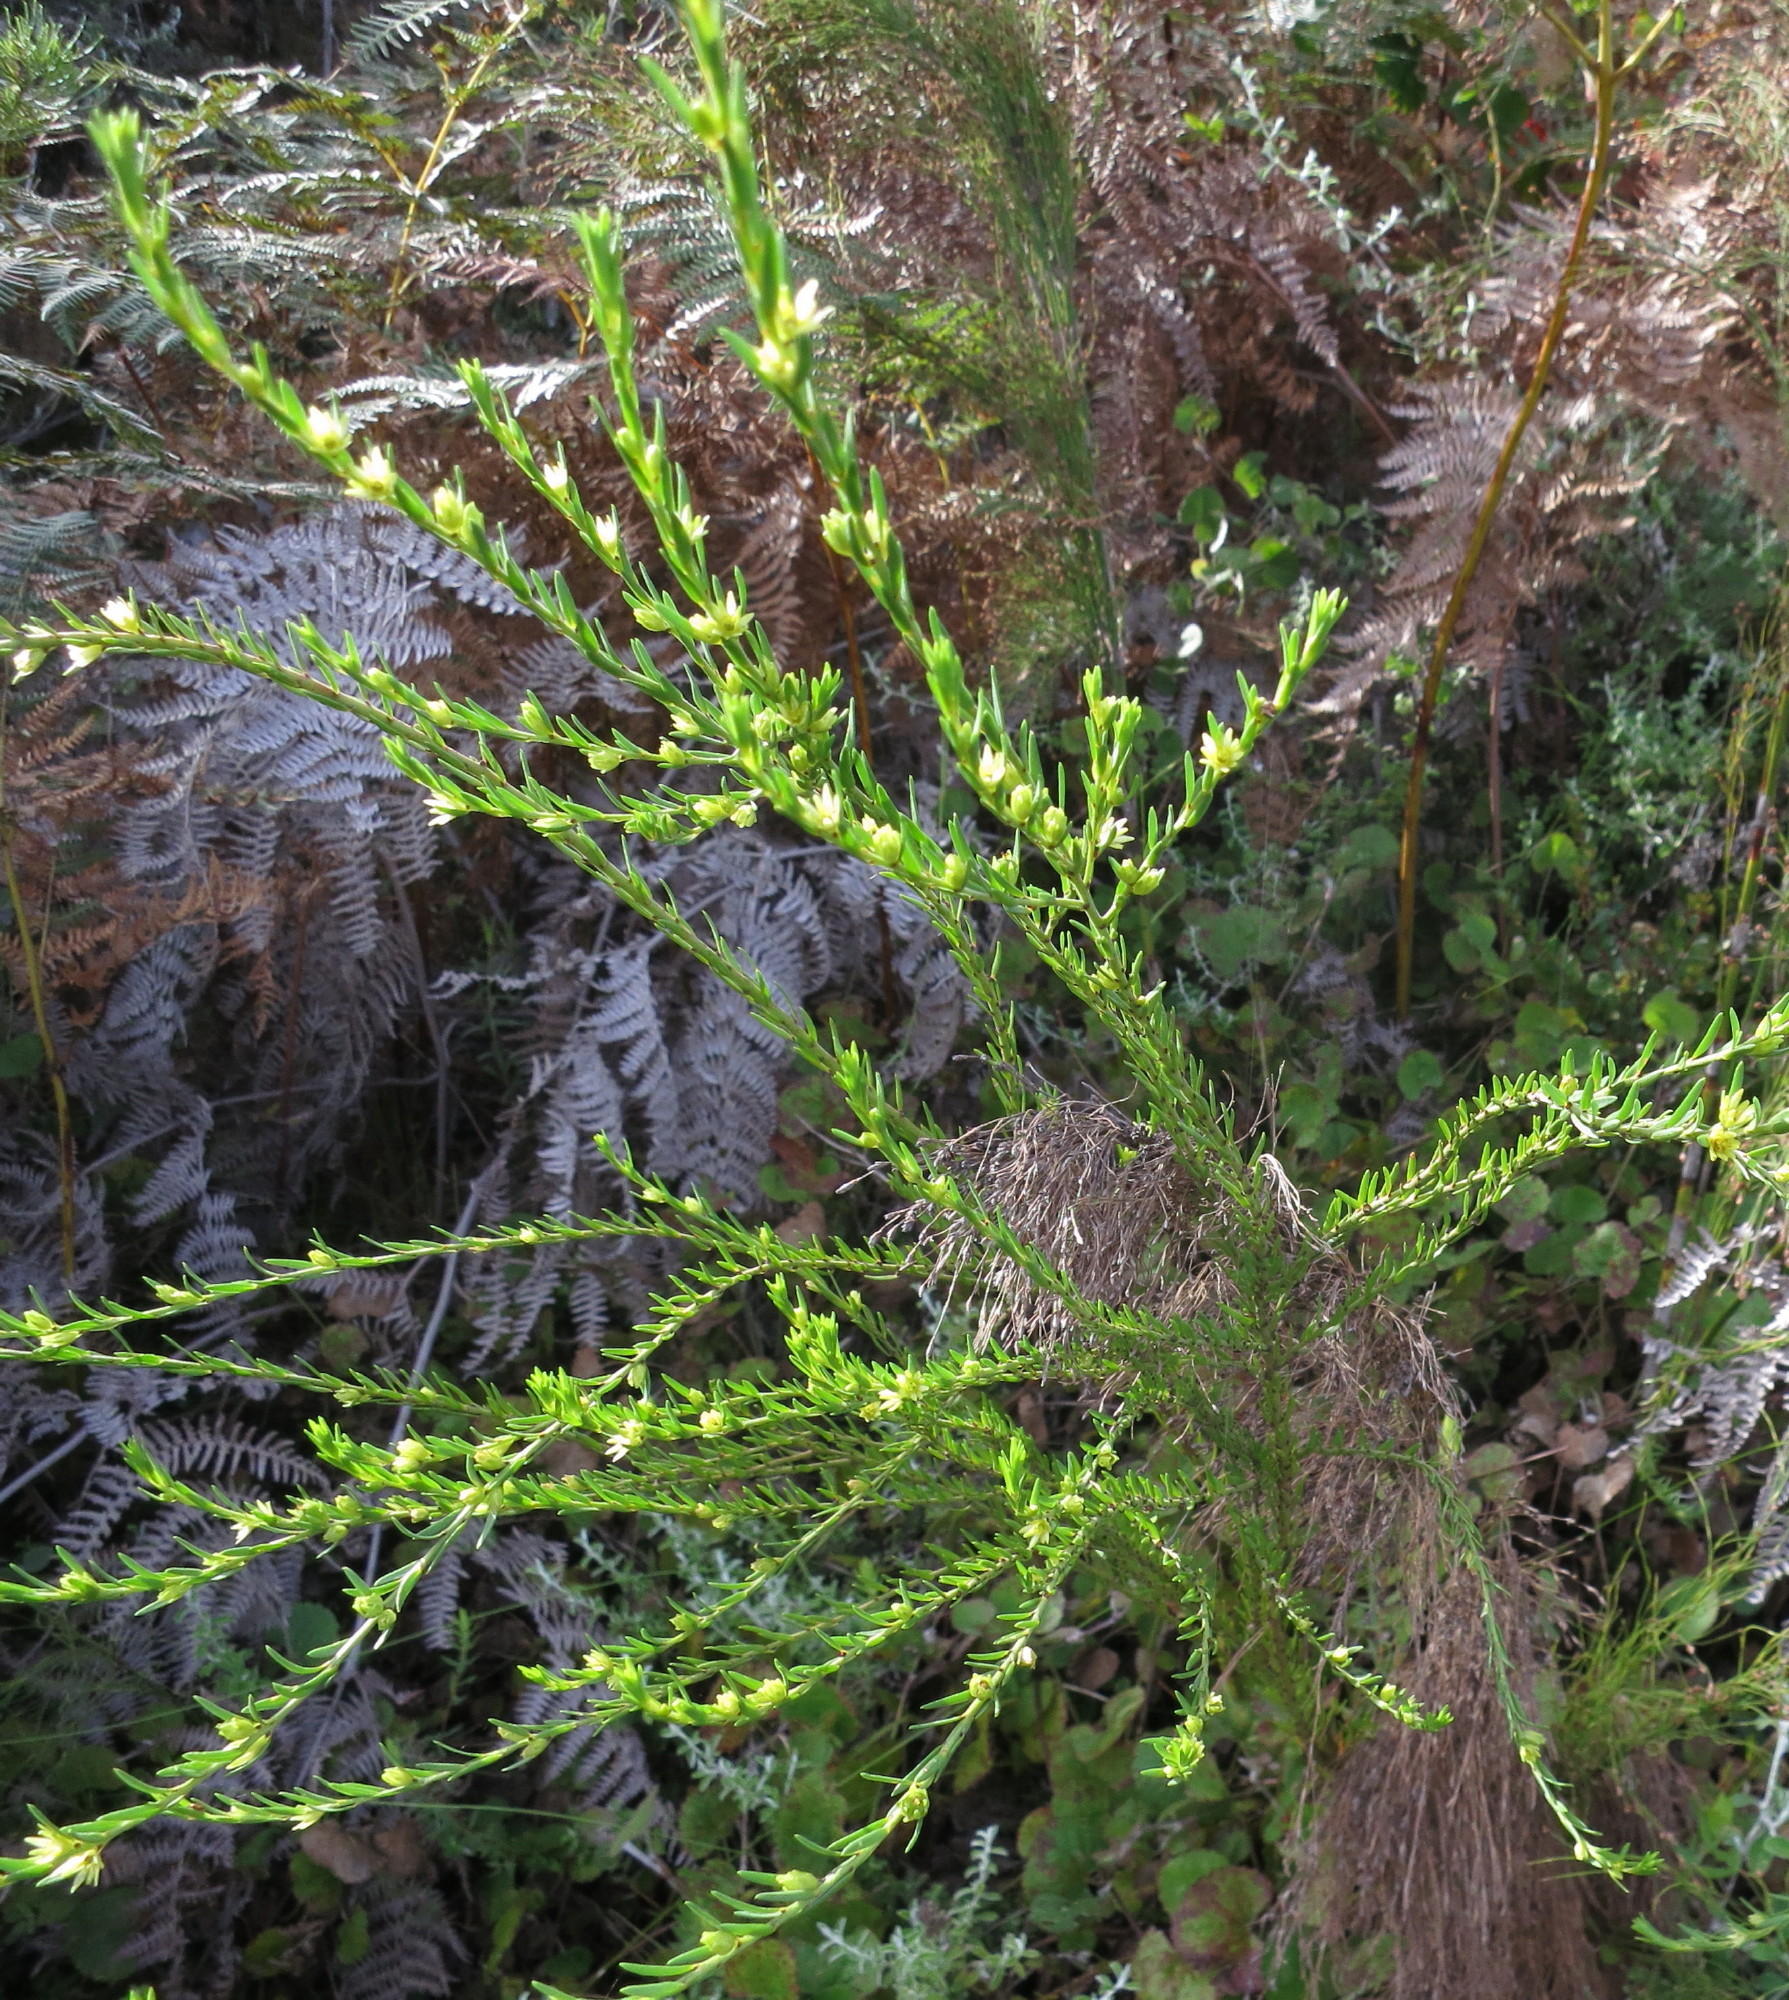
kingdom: Plantae
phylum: Tracheophyta
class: Magnoliopsida
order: Malpighiales
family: Peraceae
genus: Clutia
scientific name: Clutia ericoides
